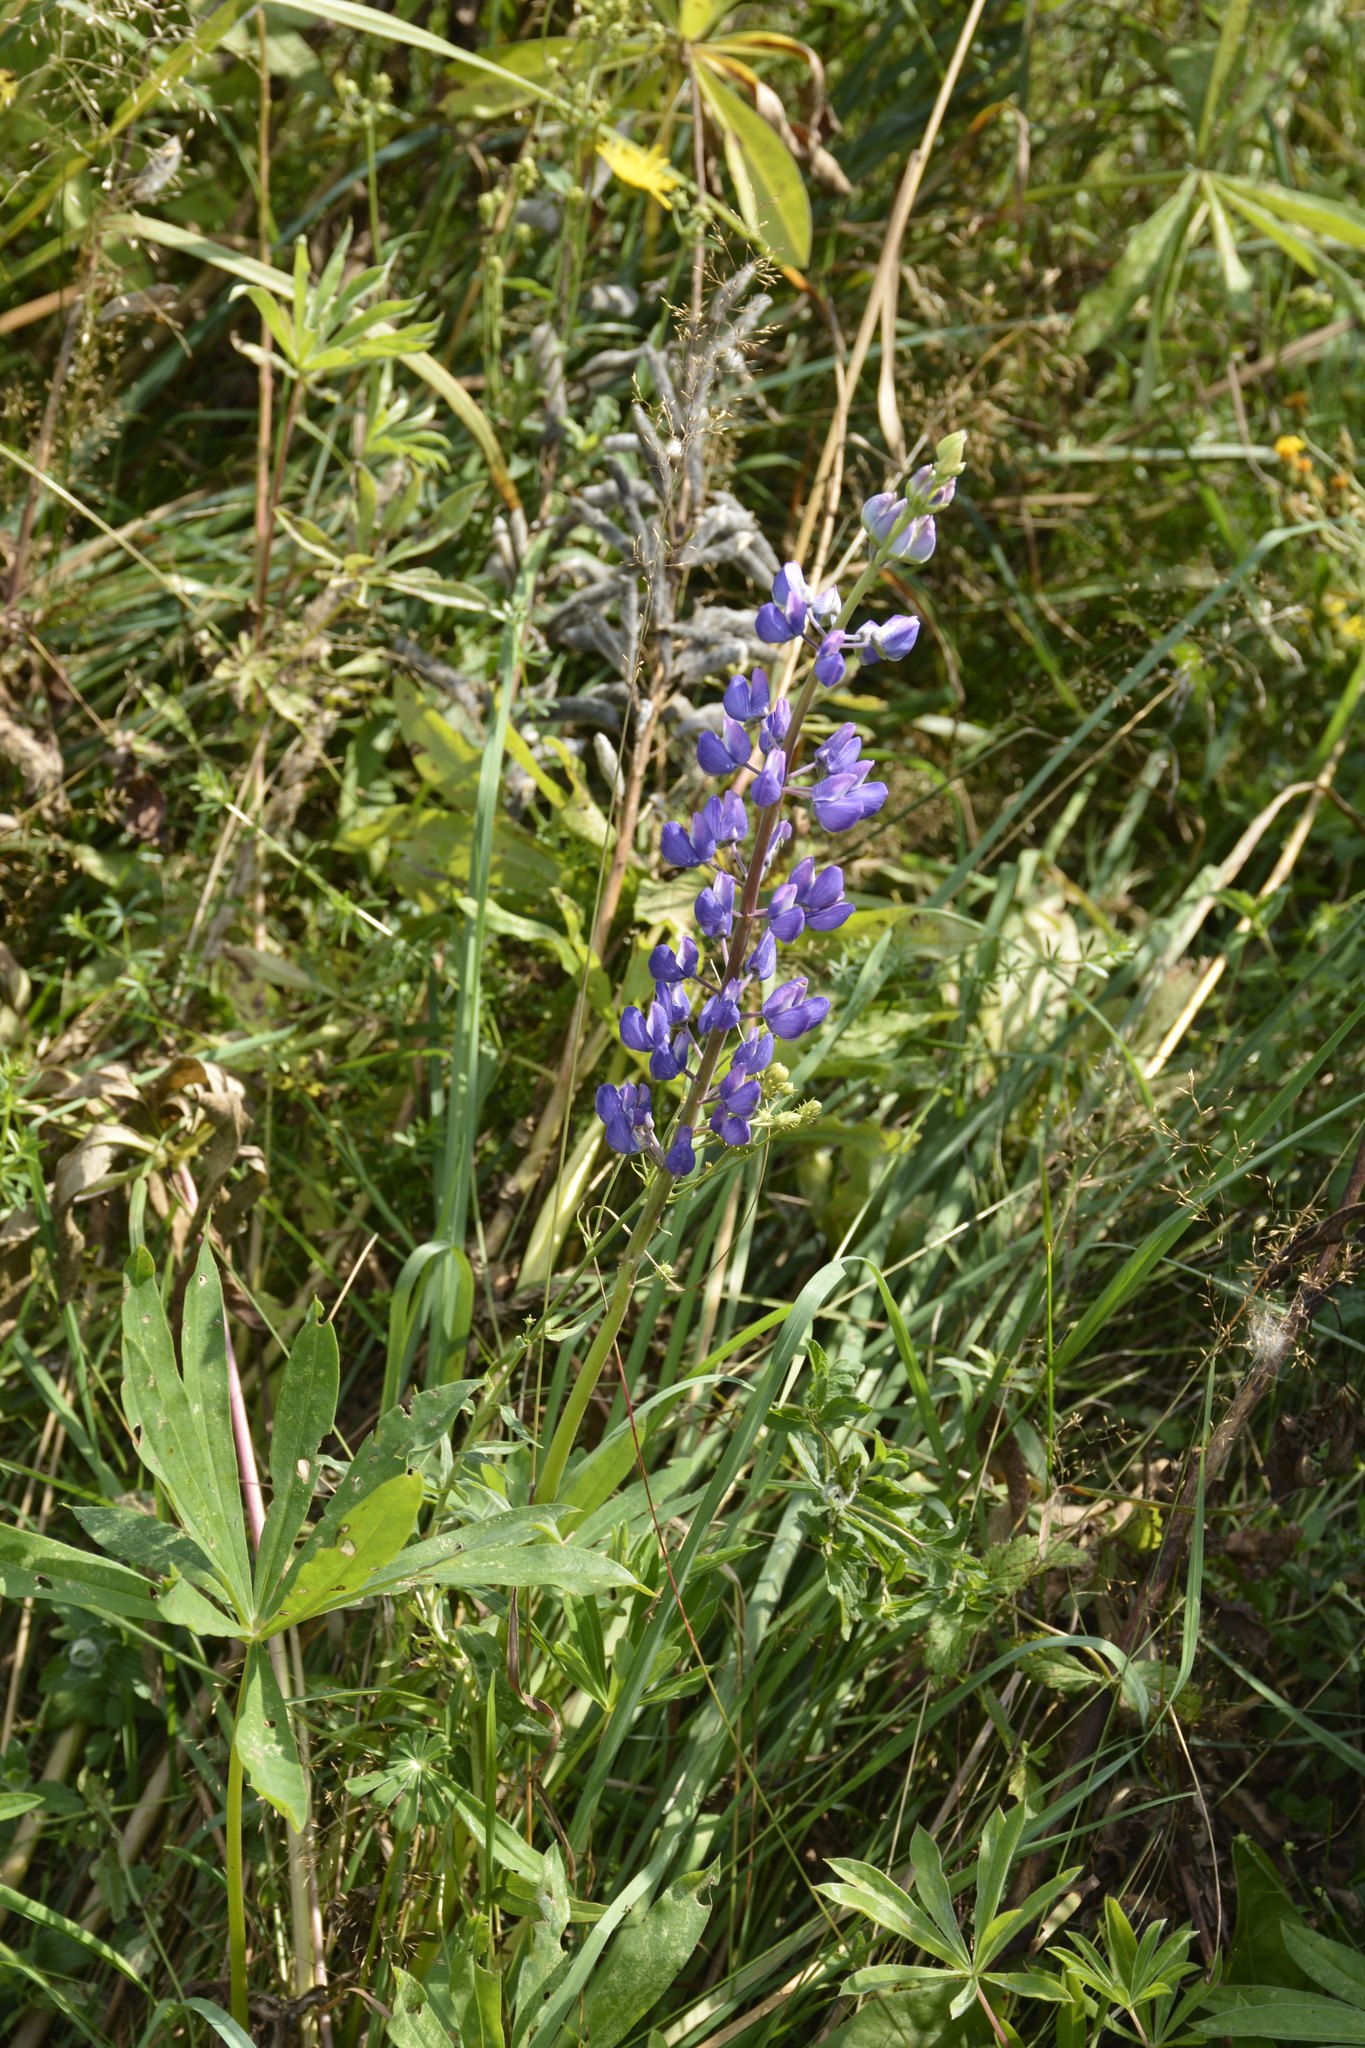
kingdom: Plantae
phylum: Tracheophyta
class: Magnoliopsida
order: Fabales
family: Fabaceae
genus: Lupinus
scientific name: Lupinus polyphyllus
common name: Garden lupin
